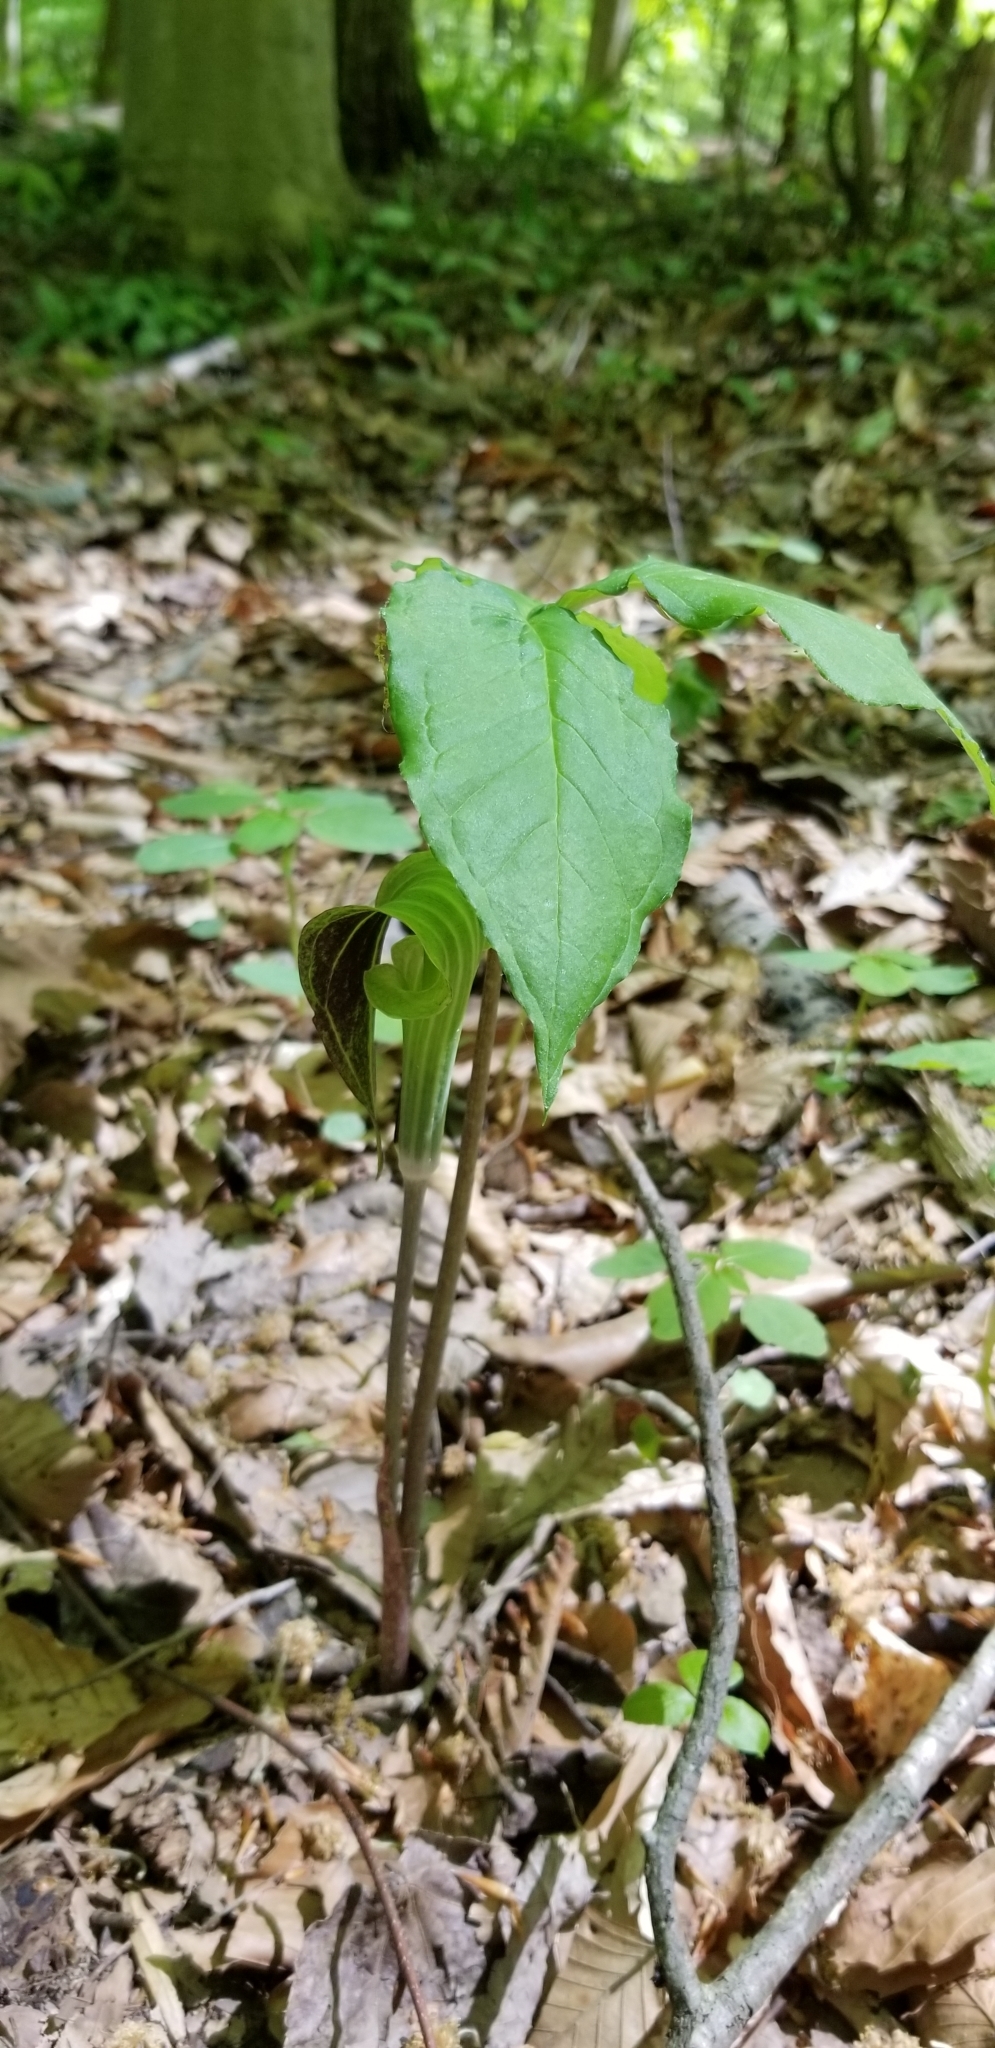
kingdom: Plantae
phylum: Tracheophyta
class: Liliopsida
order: Alismatales
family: Araceae
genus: Arisaema
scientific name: Arisaema triphyllum
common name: Jack-in-the-pulpit
